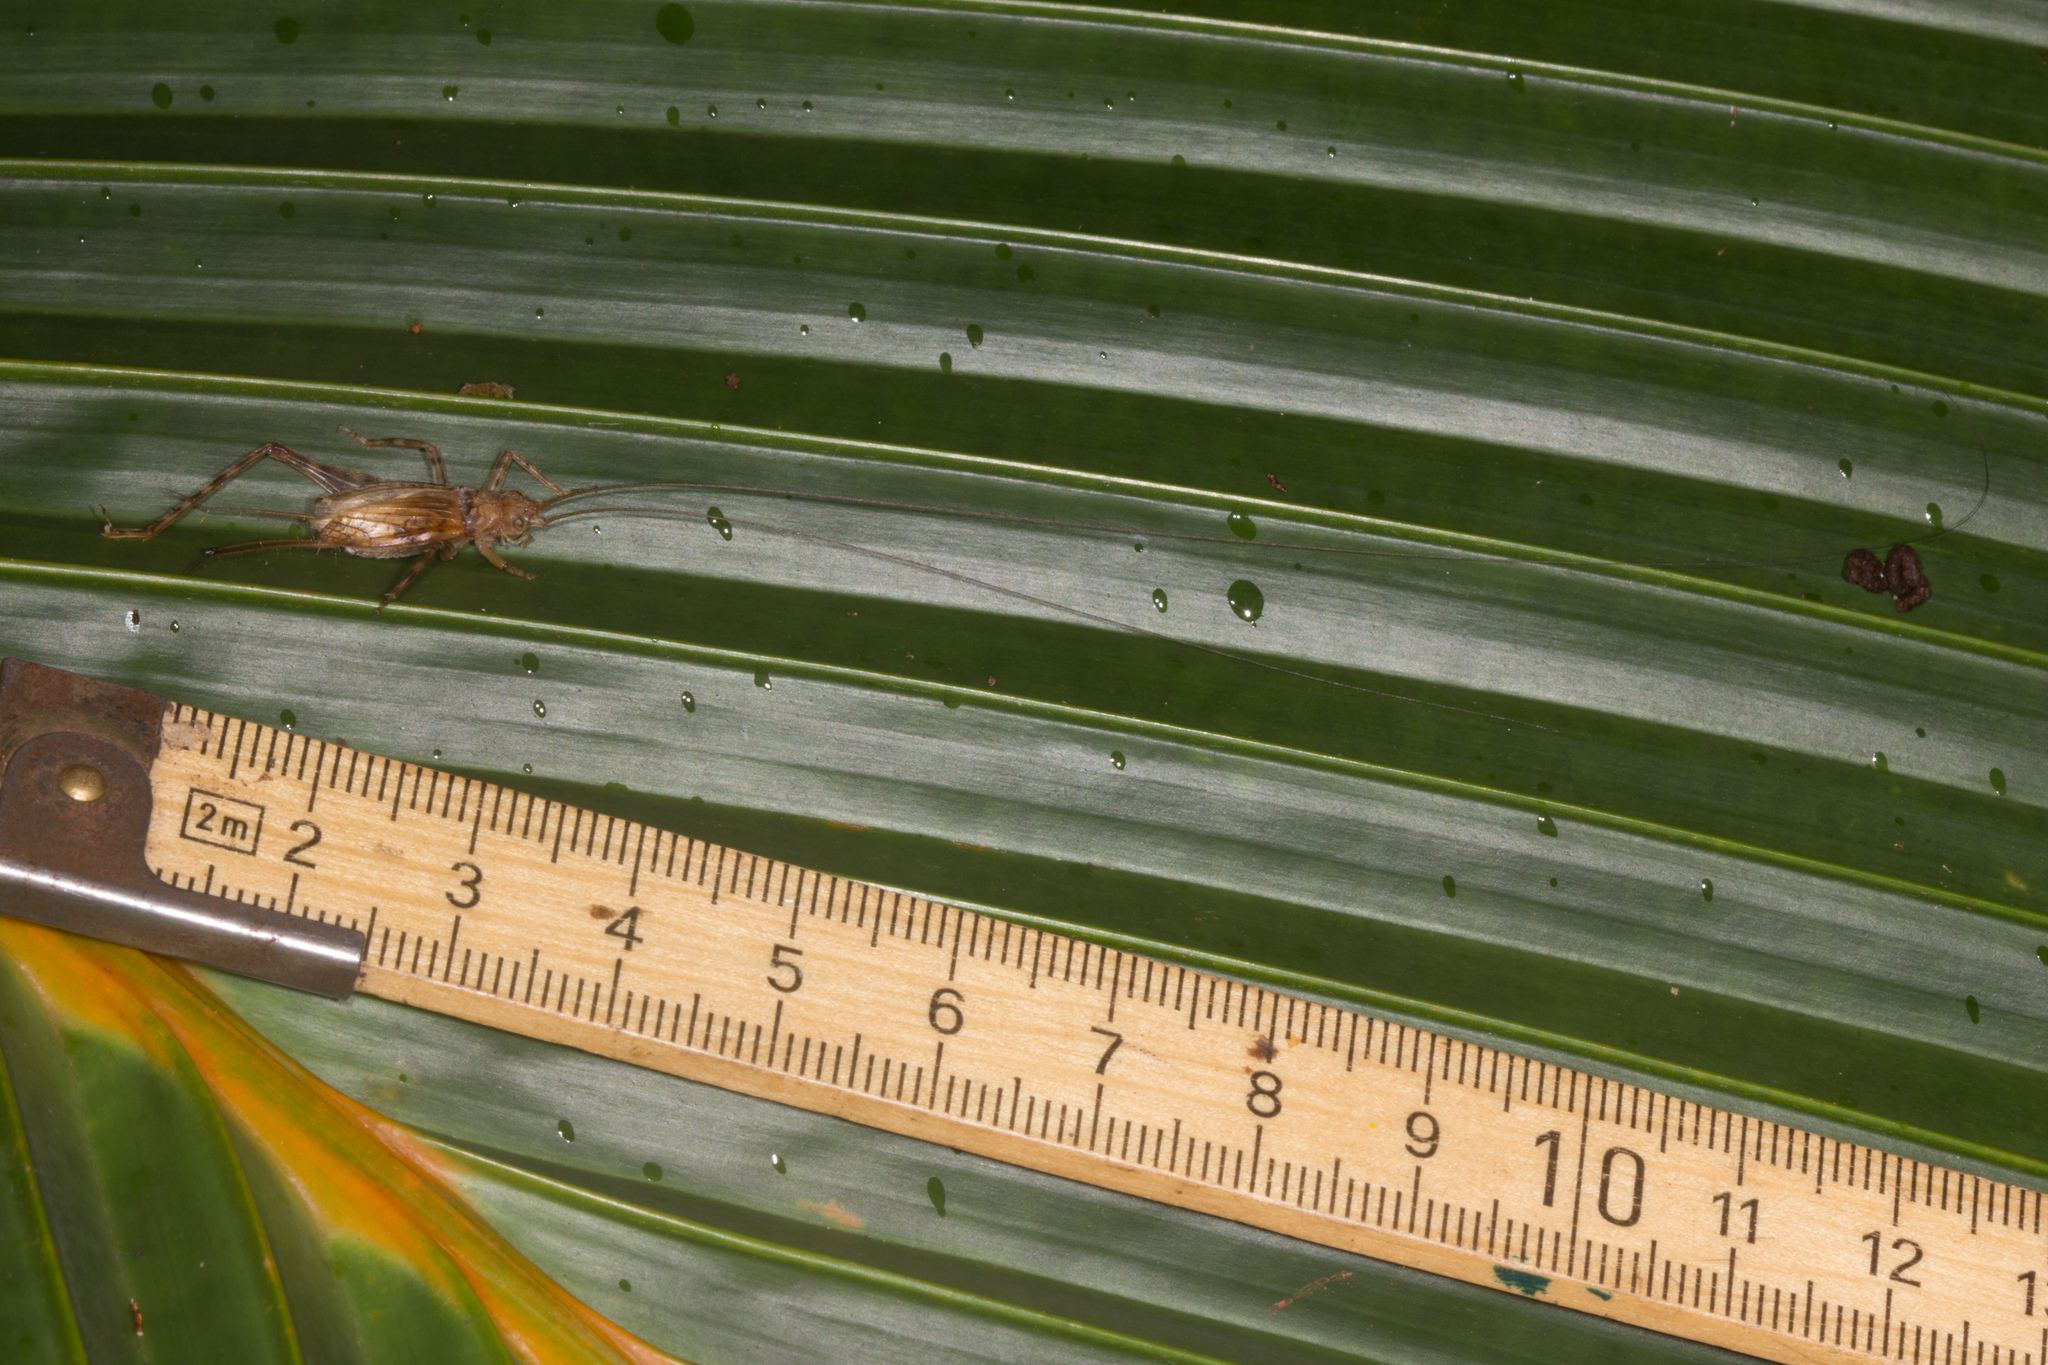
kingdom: Animalia
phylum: Arthropoda
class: Insecta
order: Orthoptera
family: Phalangopsidae
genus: Phaloria
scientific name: Phaloria insularis
